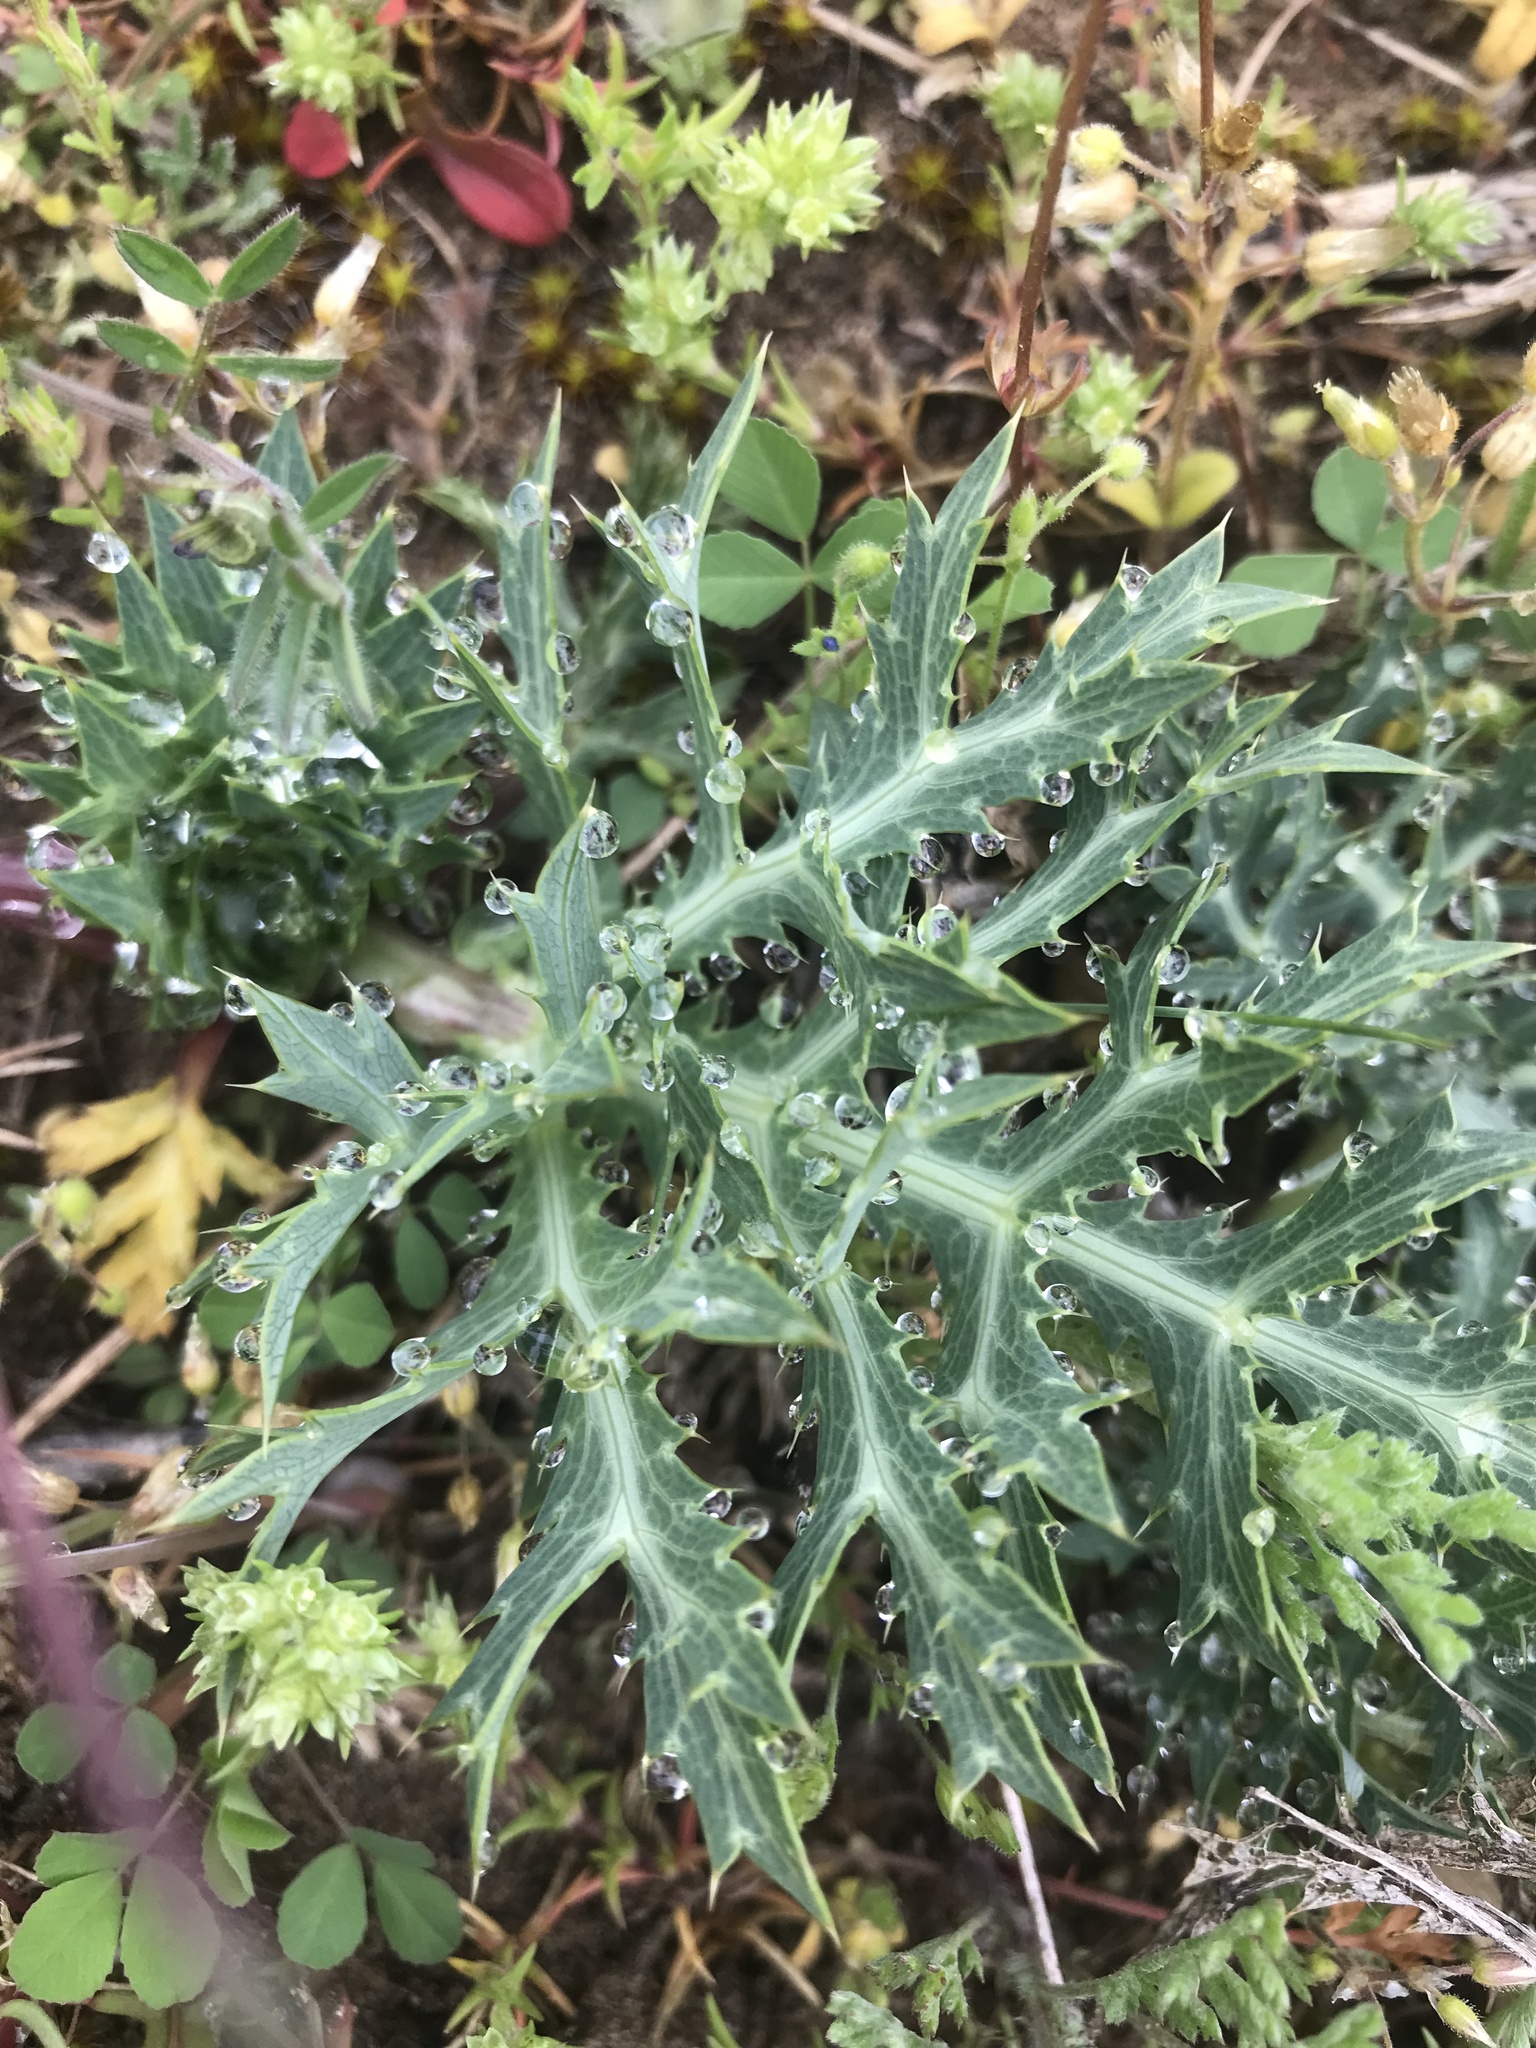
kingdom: Plantae
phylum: Tracheophyta
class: Magnoliopsida
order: Apiales
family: Apiaceae
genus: Eryngium
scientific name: Eryngium campestre
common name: Field eryngo
